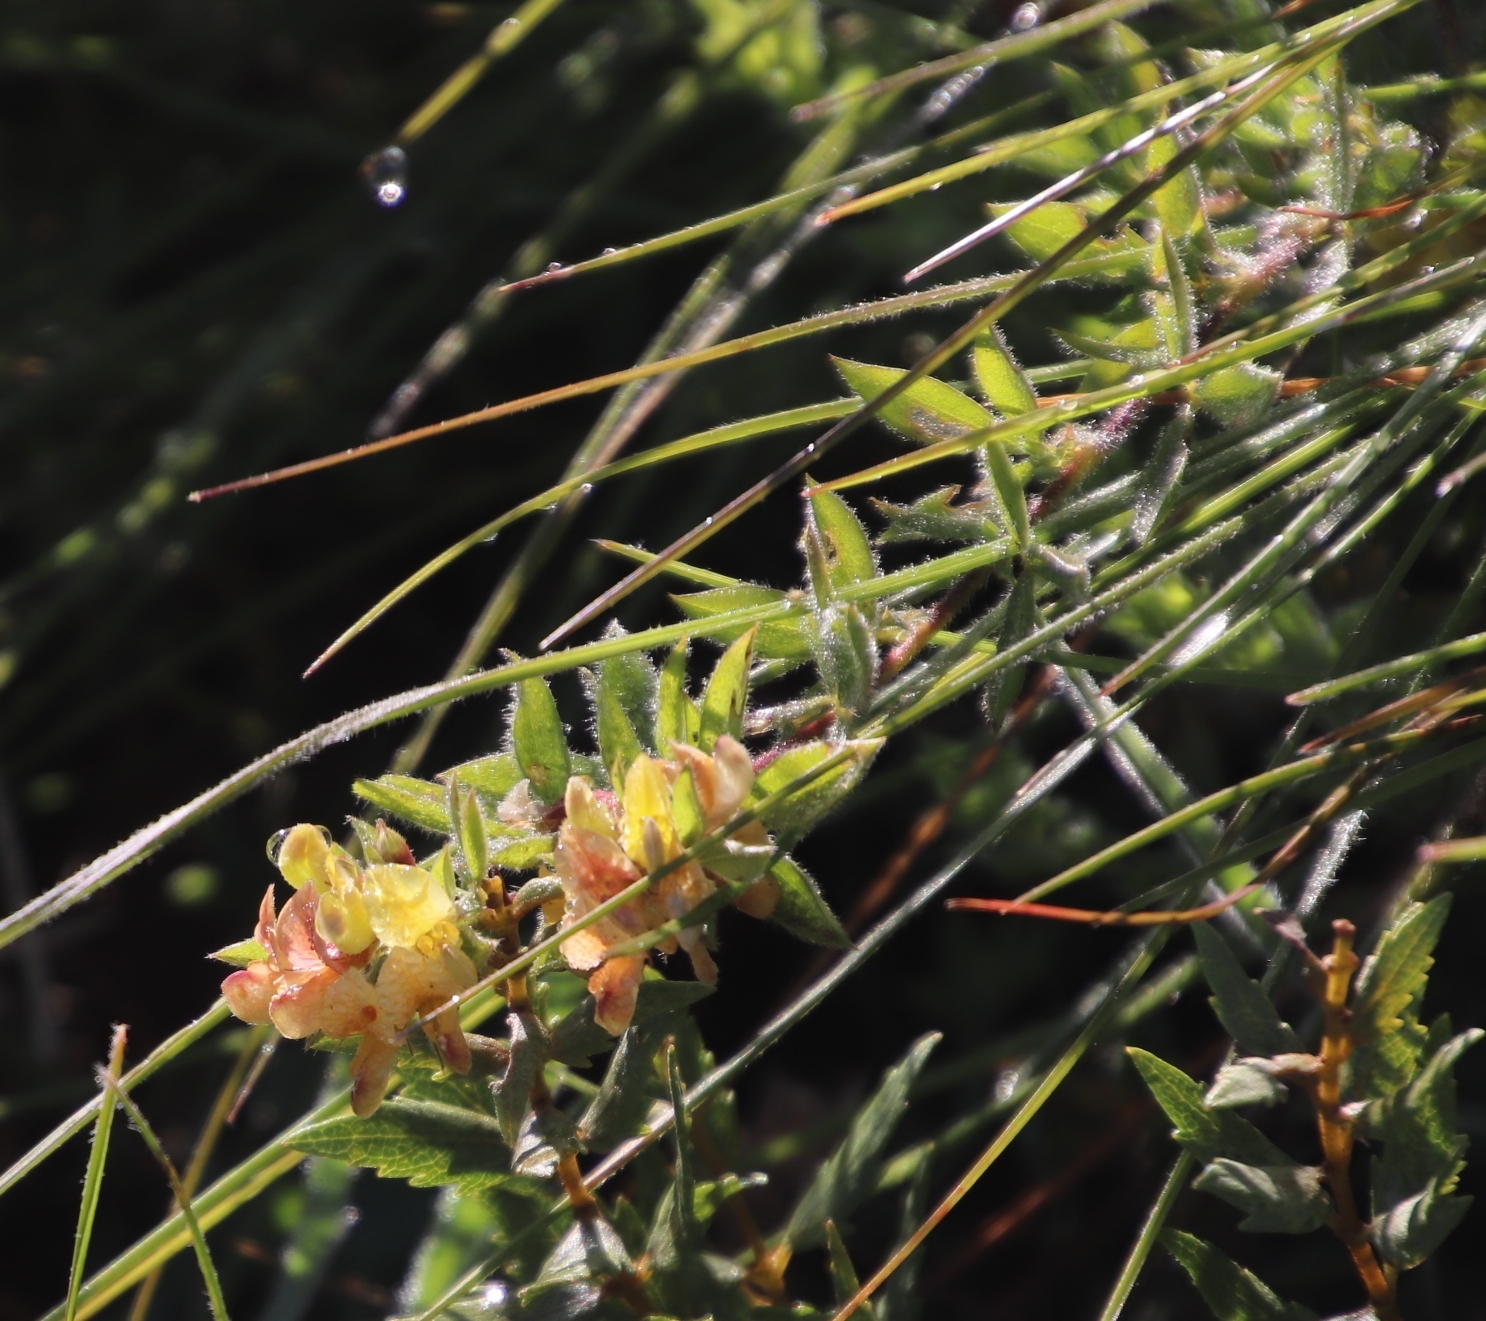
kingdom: Plantae
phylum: Tracheophyta
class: Magnoliopsida
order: Fabales
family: Fabaceae
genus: Leobordea
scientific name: Leobordea eriantha
